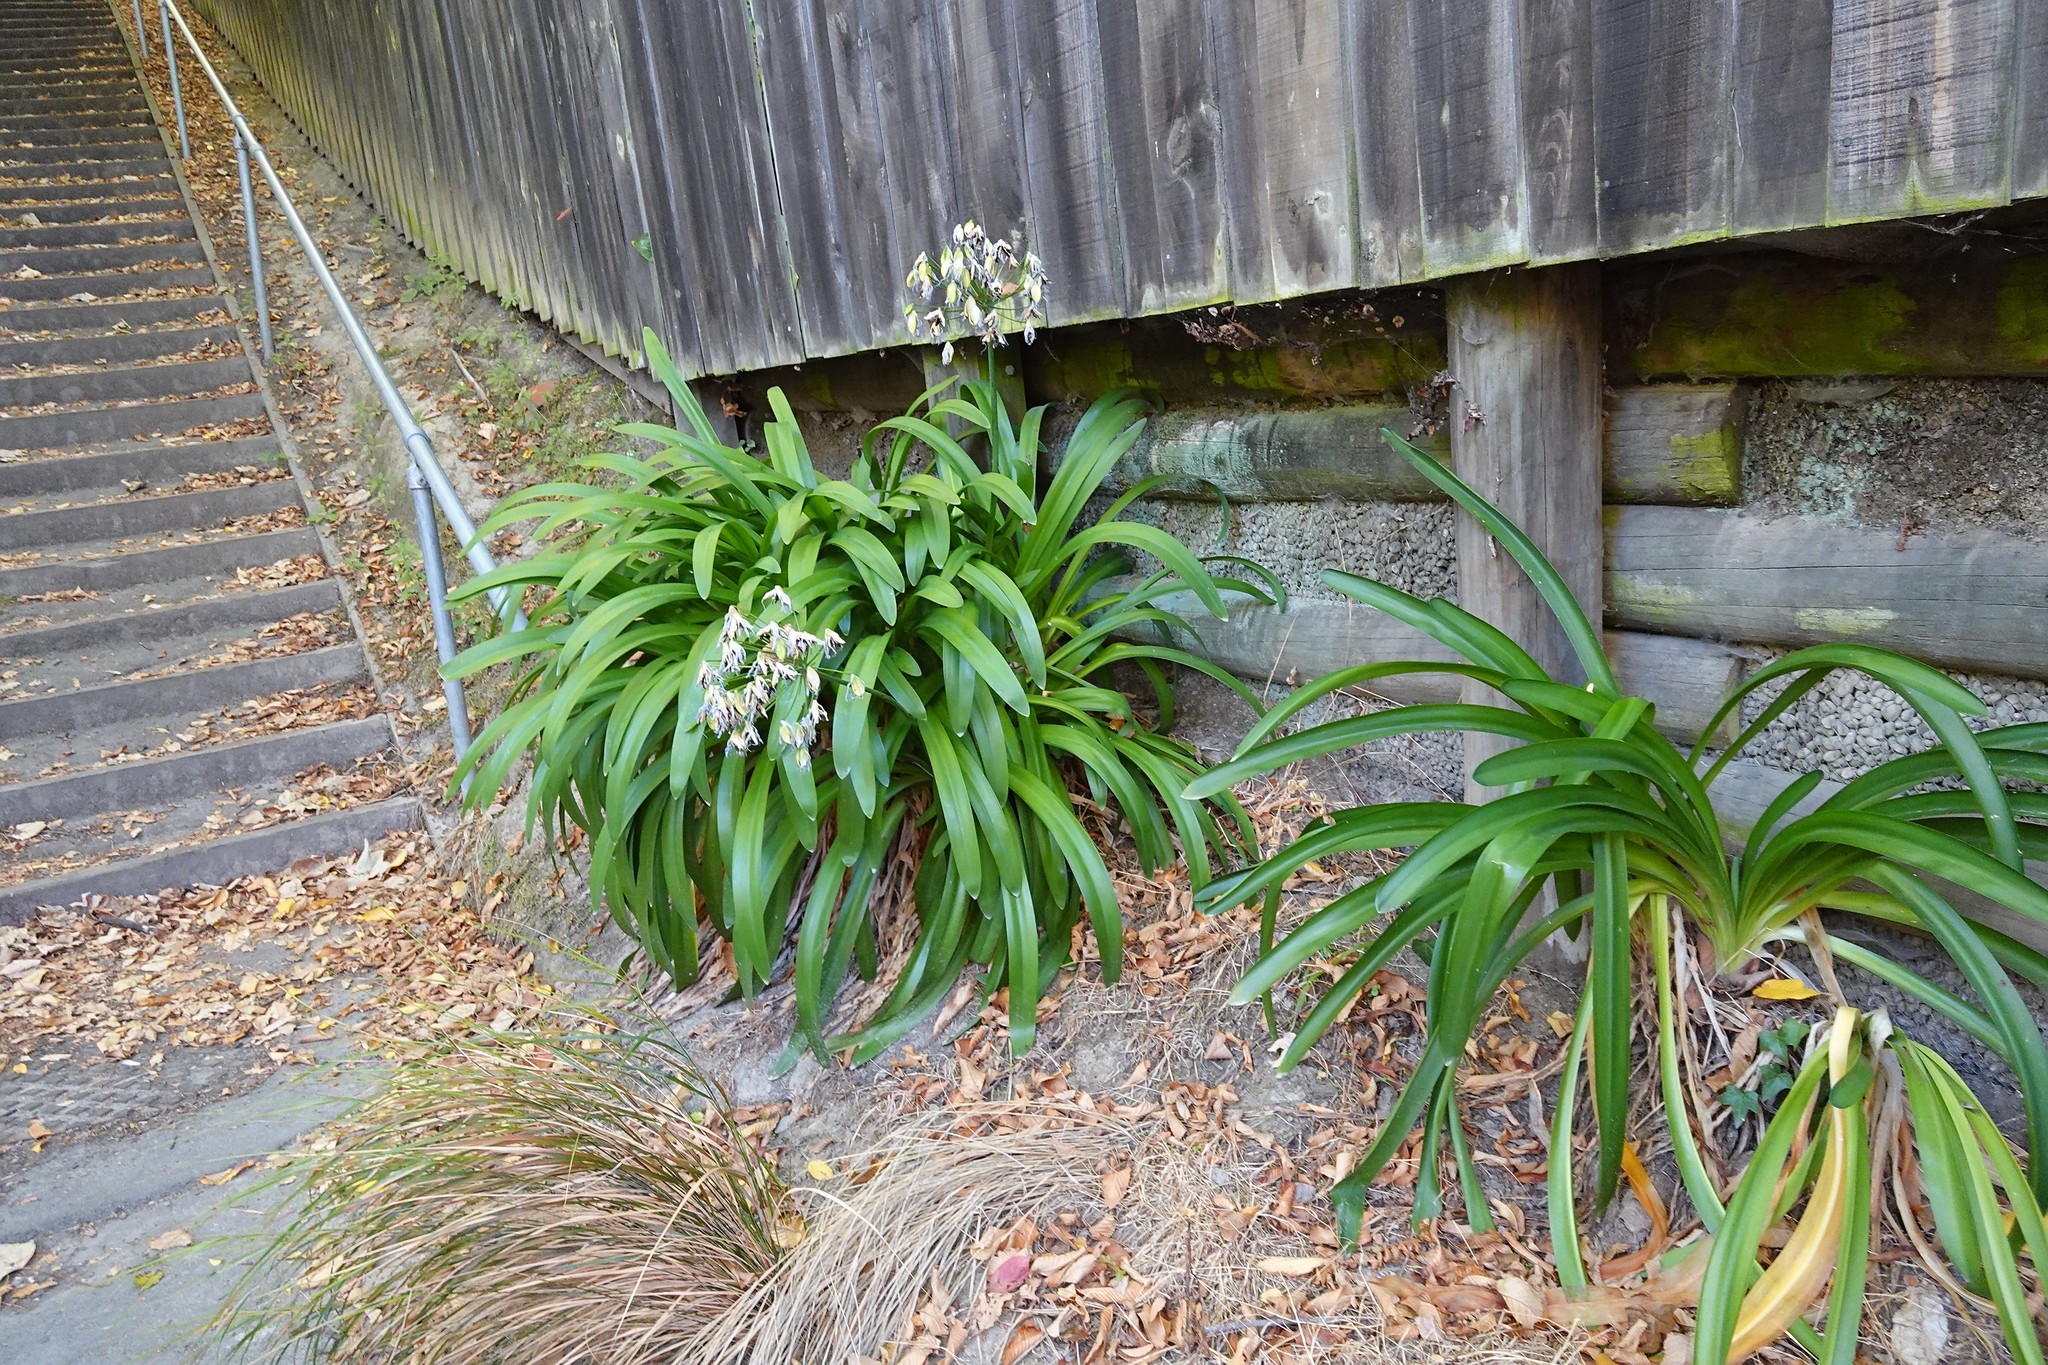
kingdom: Plantae
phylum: Tracheophyta
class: Liliopsida
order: Asparagales
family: Amaryllidaceae
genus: Agapanthus
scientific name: Agapanthus praecox
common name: African-lily
